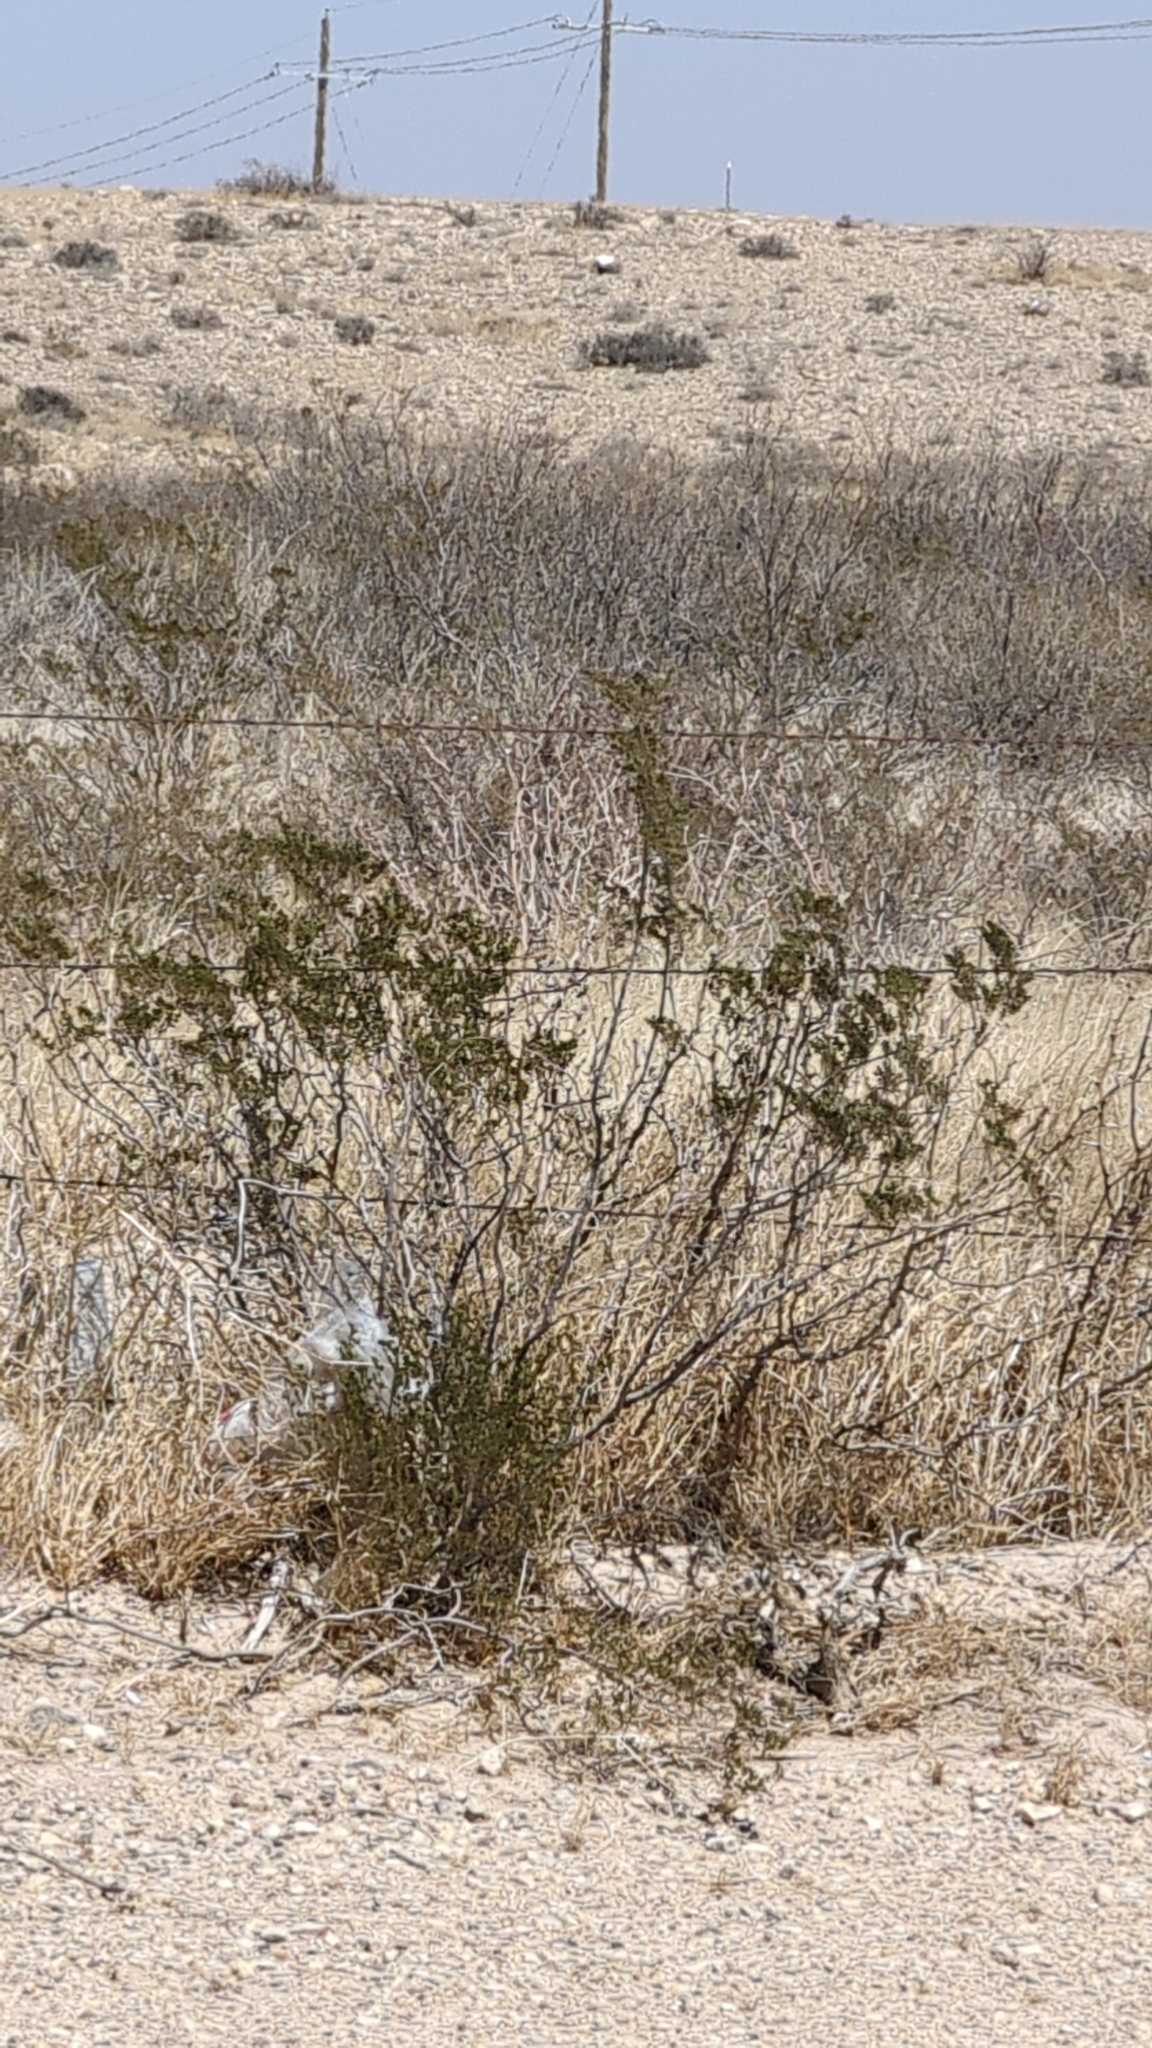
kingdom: Plantae
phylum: Tracheophyta
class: Magnoliopsida
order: Zygophyllales
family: Zygophyllaceae
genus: Larrea
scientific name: Larrea tridentata
